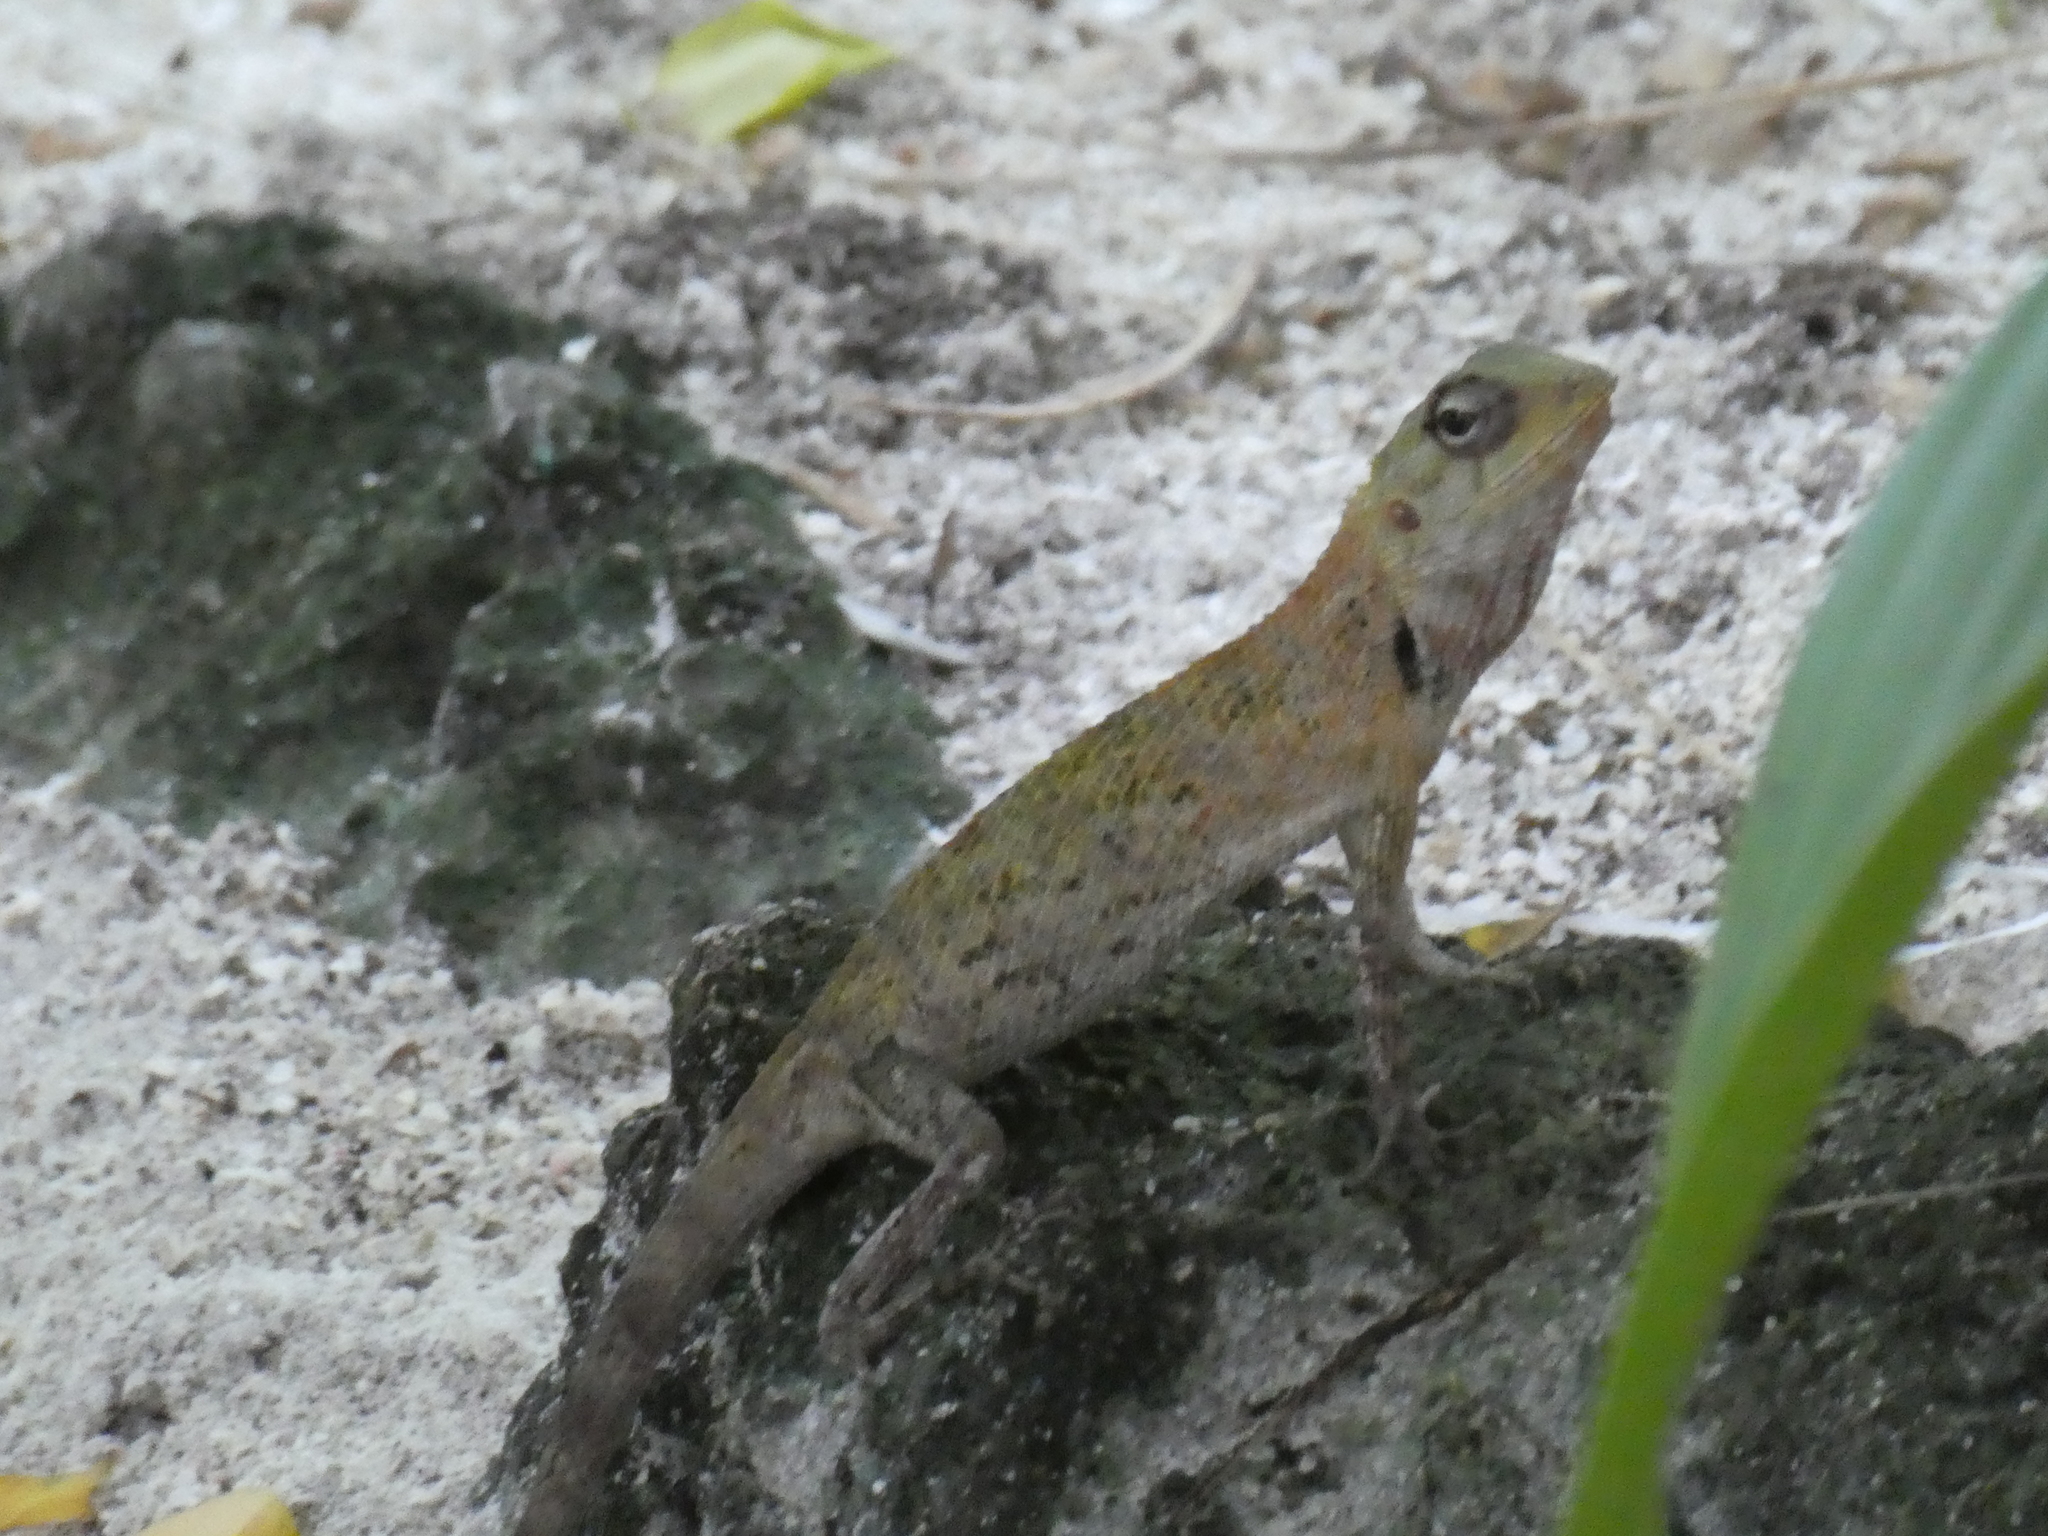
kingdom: Animalia
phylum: Chordata
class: Squamata
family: Agamidae
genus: Calotes
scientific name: Calotes versicolor
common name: Oriental garden lizard
